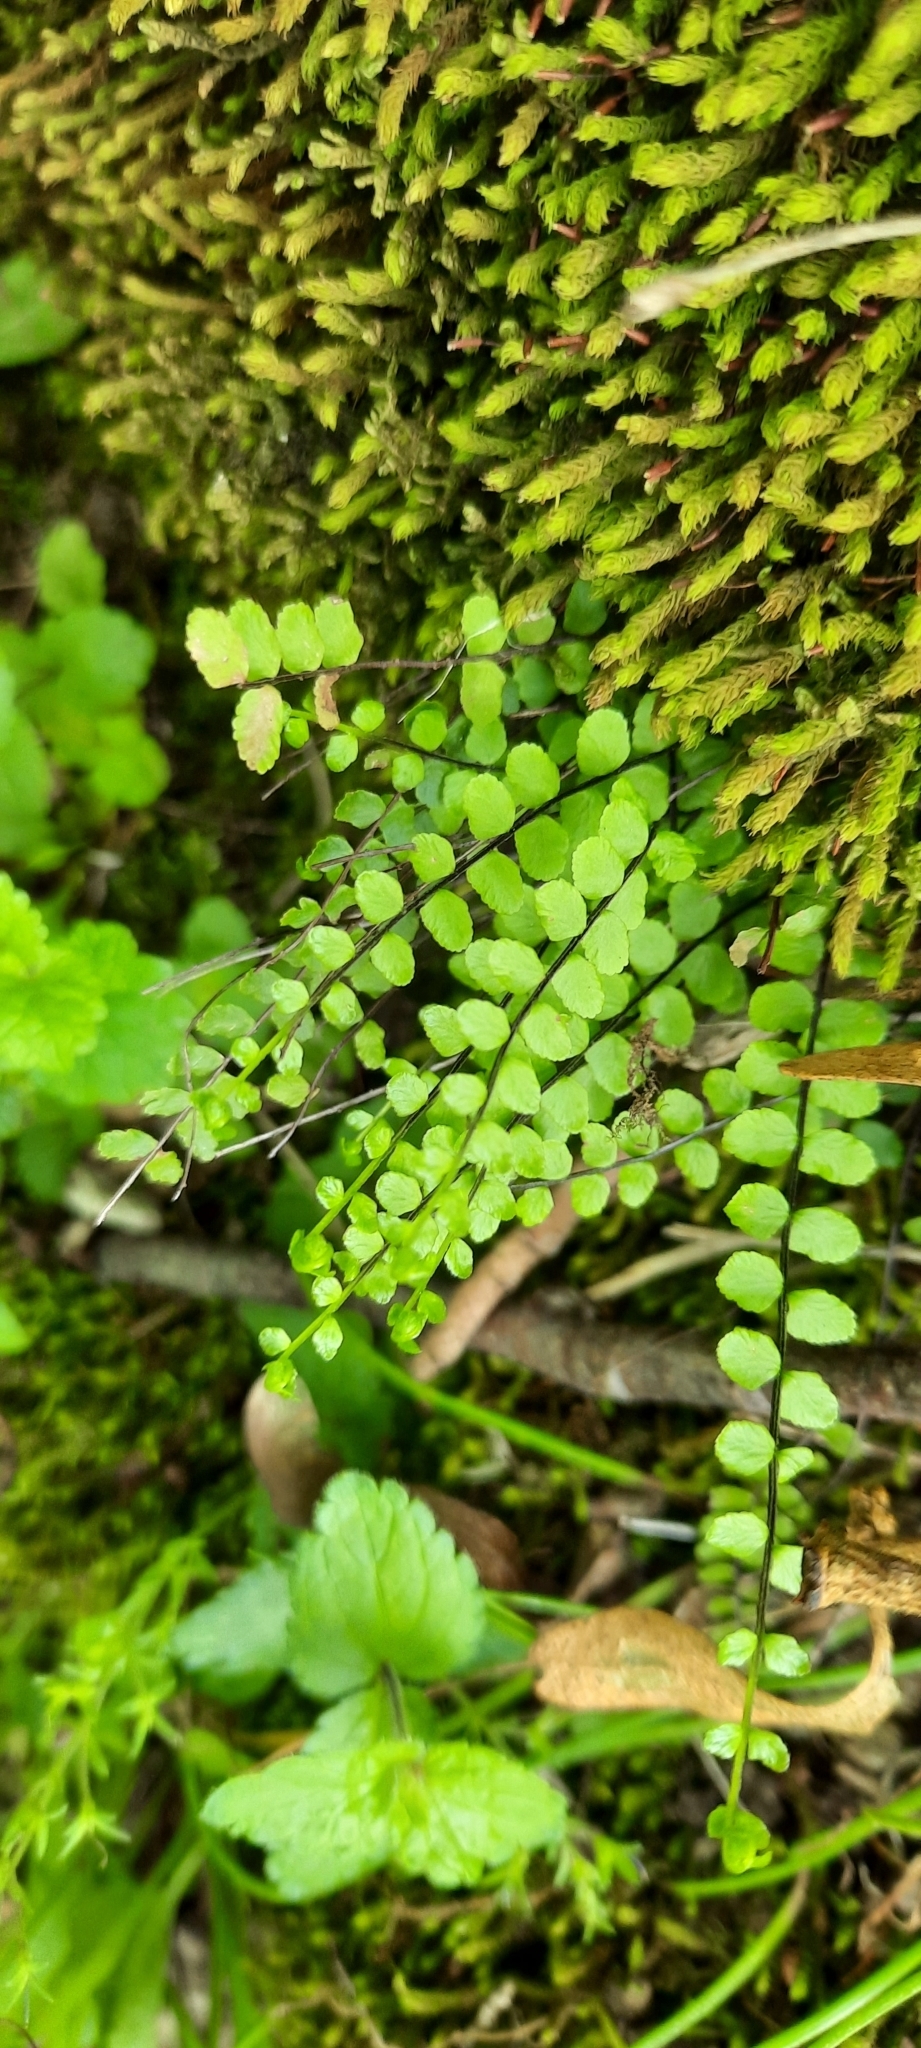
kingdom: Plantae
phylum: Tracheophyta
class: Polypodiopsida
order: Polypodiales
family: Aspleniaceae
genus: Asplenium
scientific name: Asplenium trichomanes
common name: Maidenhair spleenwort
